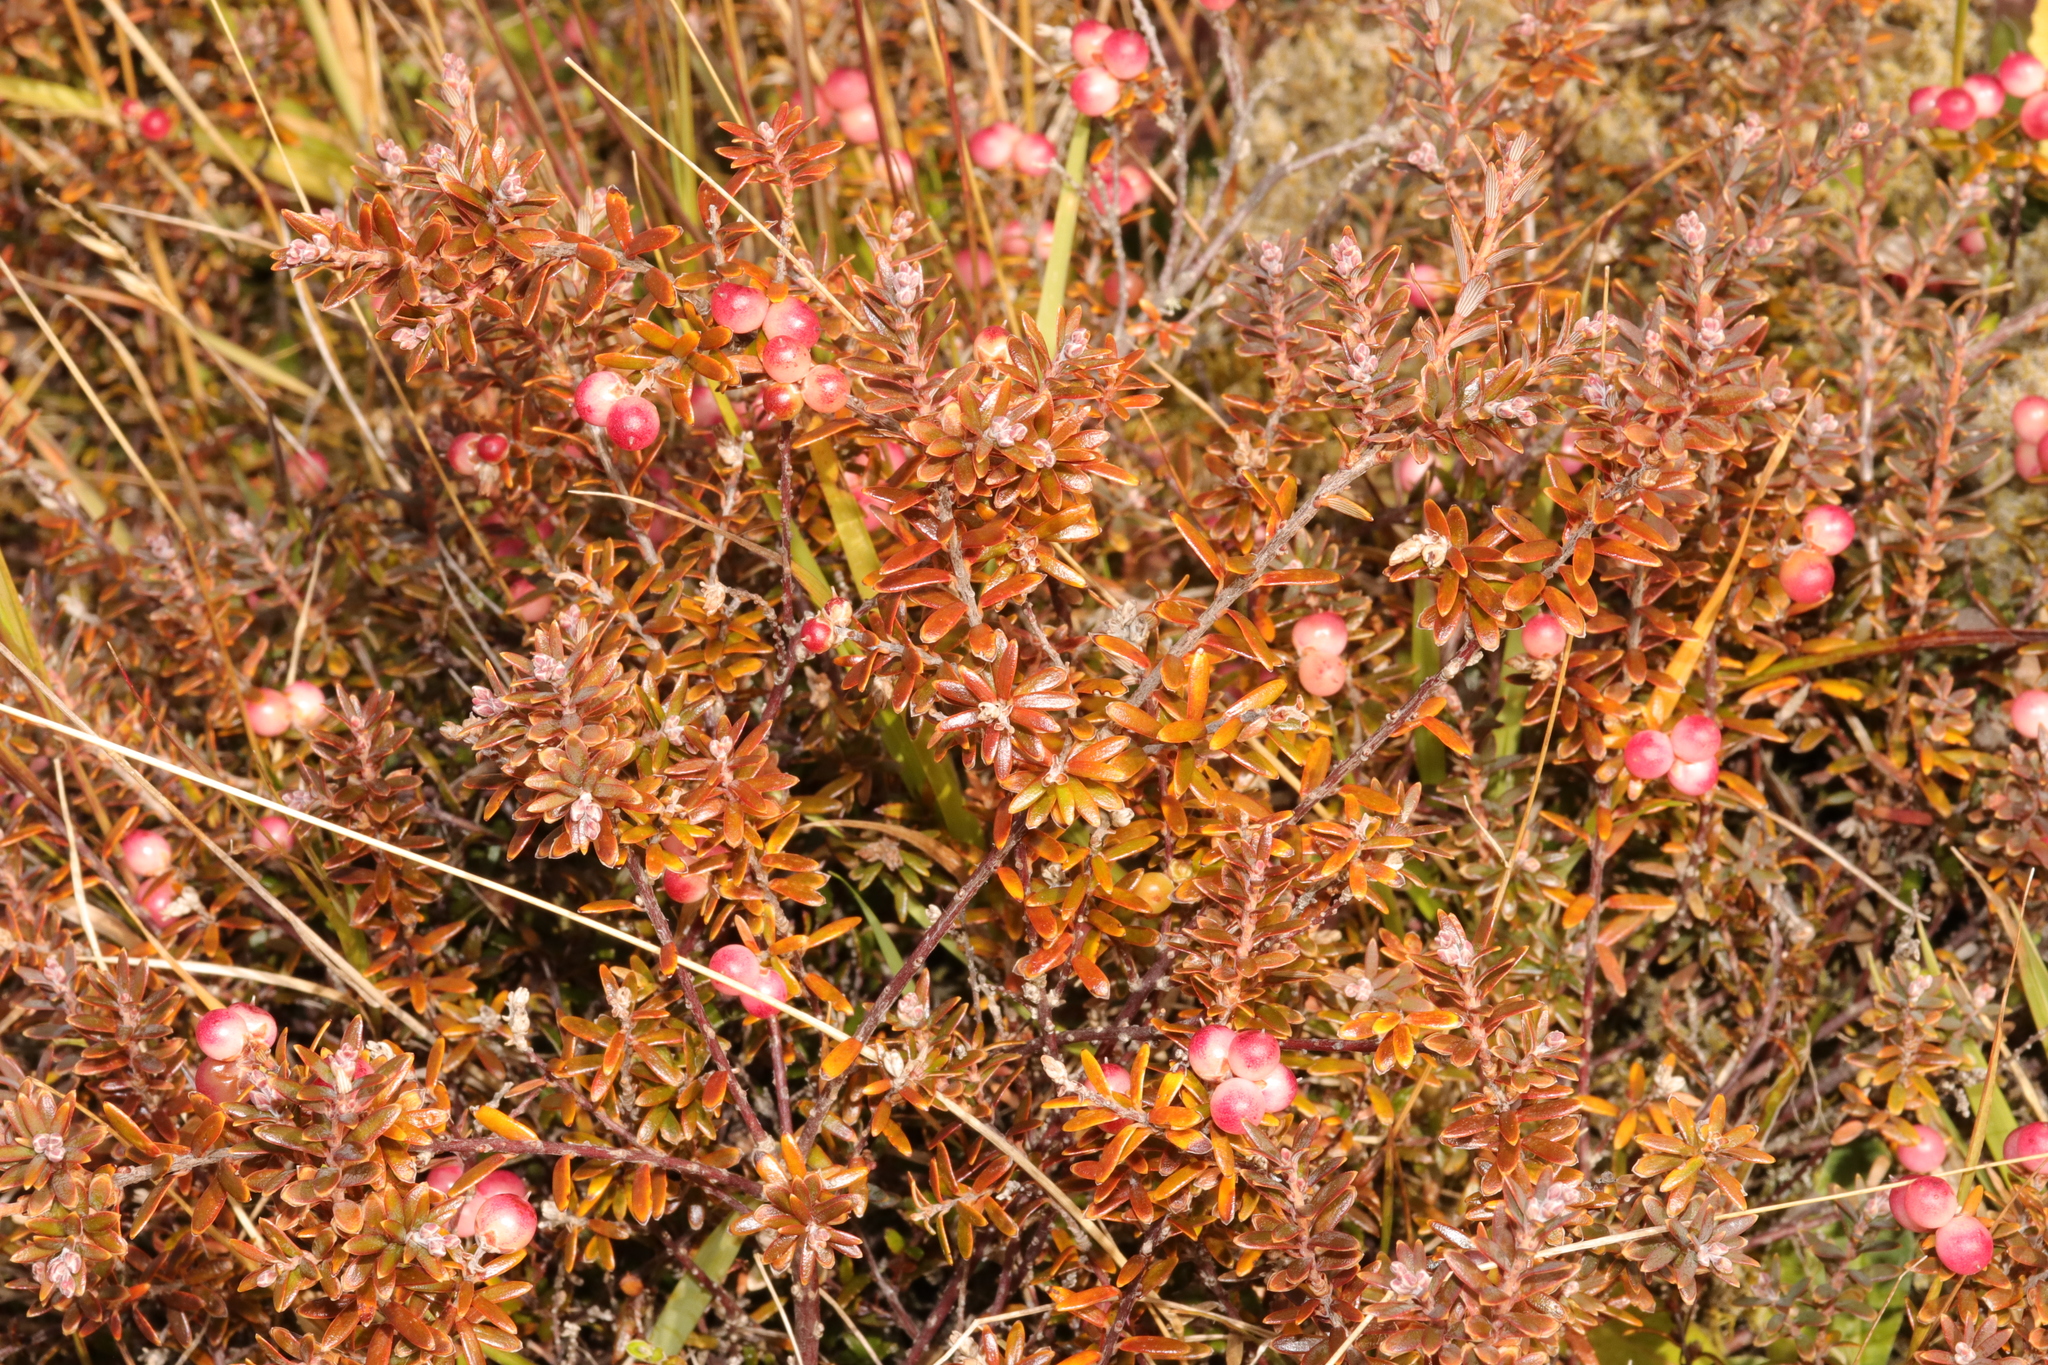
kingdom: Plantae
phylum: Tracheophyta
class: Magnoliopsida
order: Ericales
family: Ericaceae
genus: Acrothamnus
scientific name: Acrothamnus colensoi
